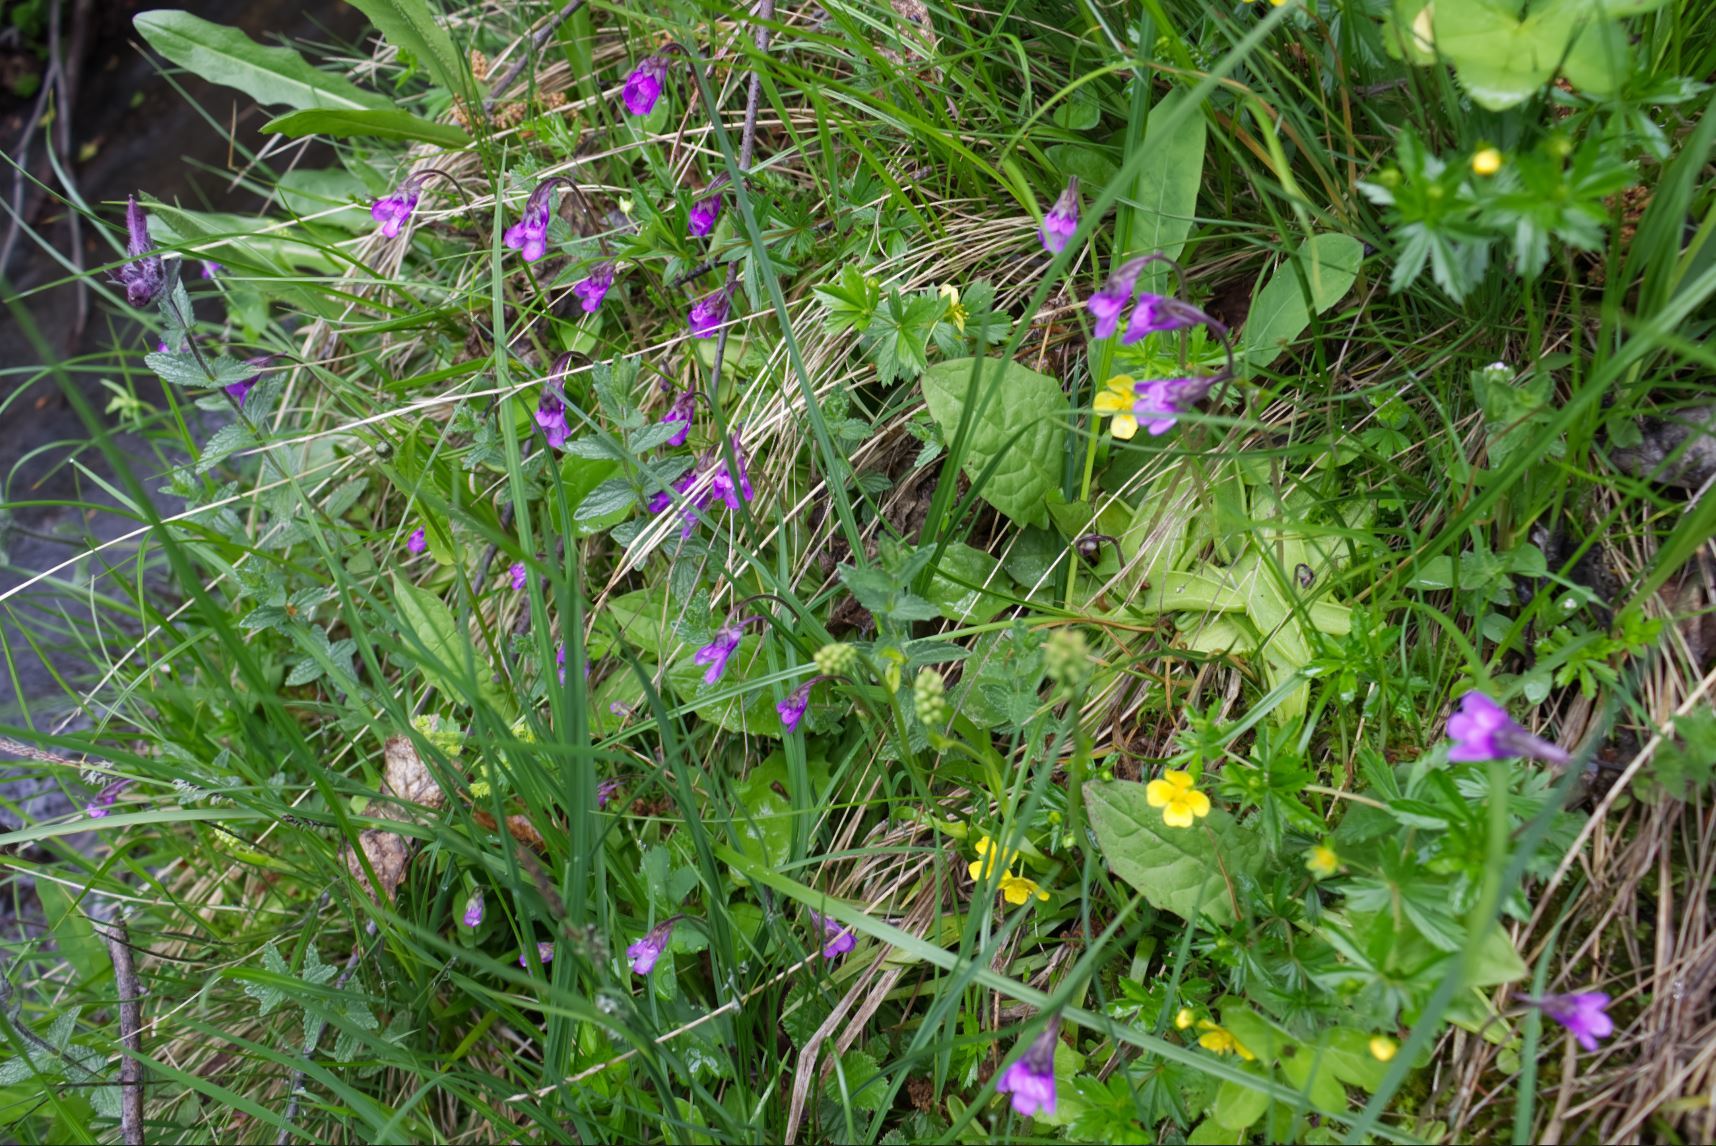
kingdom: Plantae
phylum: Tracheophyta
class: Magnoliopsida
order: Lamiales
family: Lentibulariaceae
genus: Pinguicula
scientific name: Pinguicula vulgaris
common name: Common butterwort
